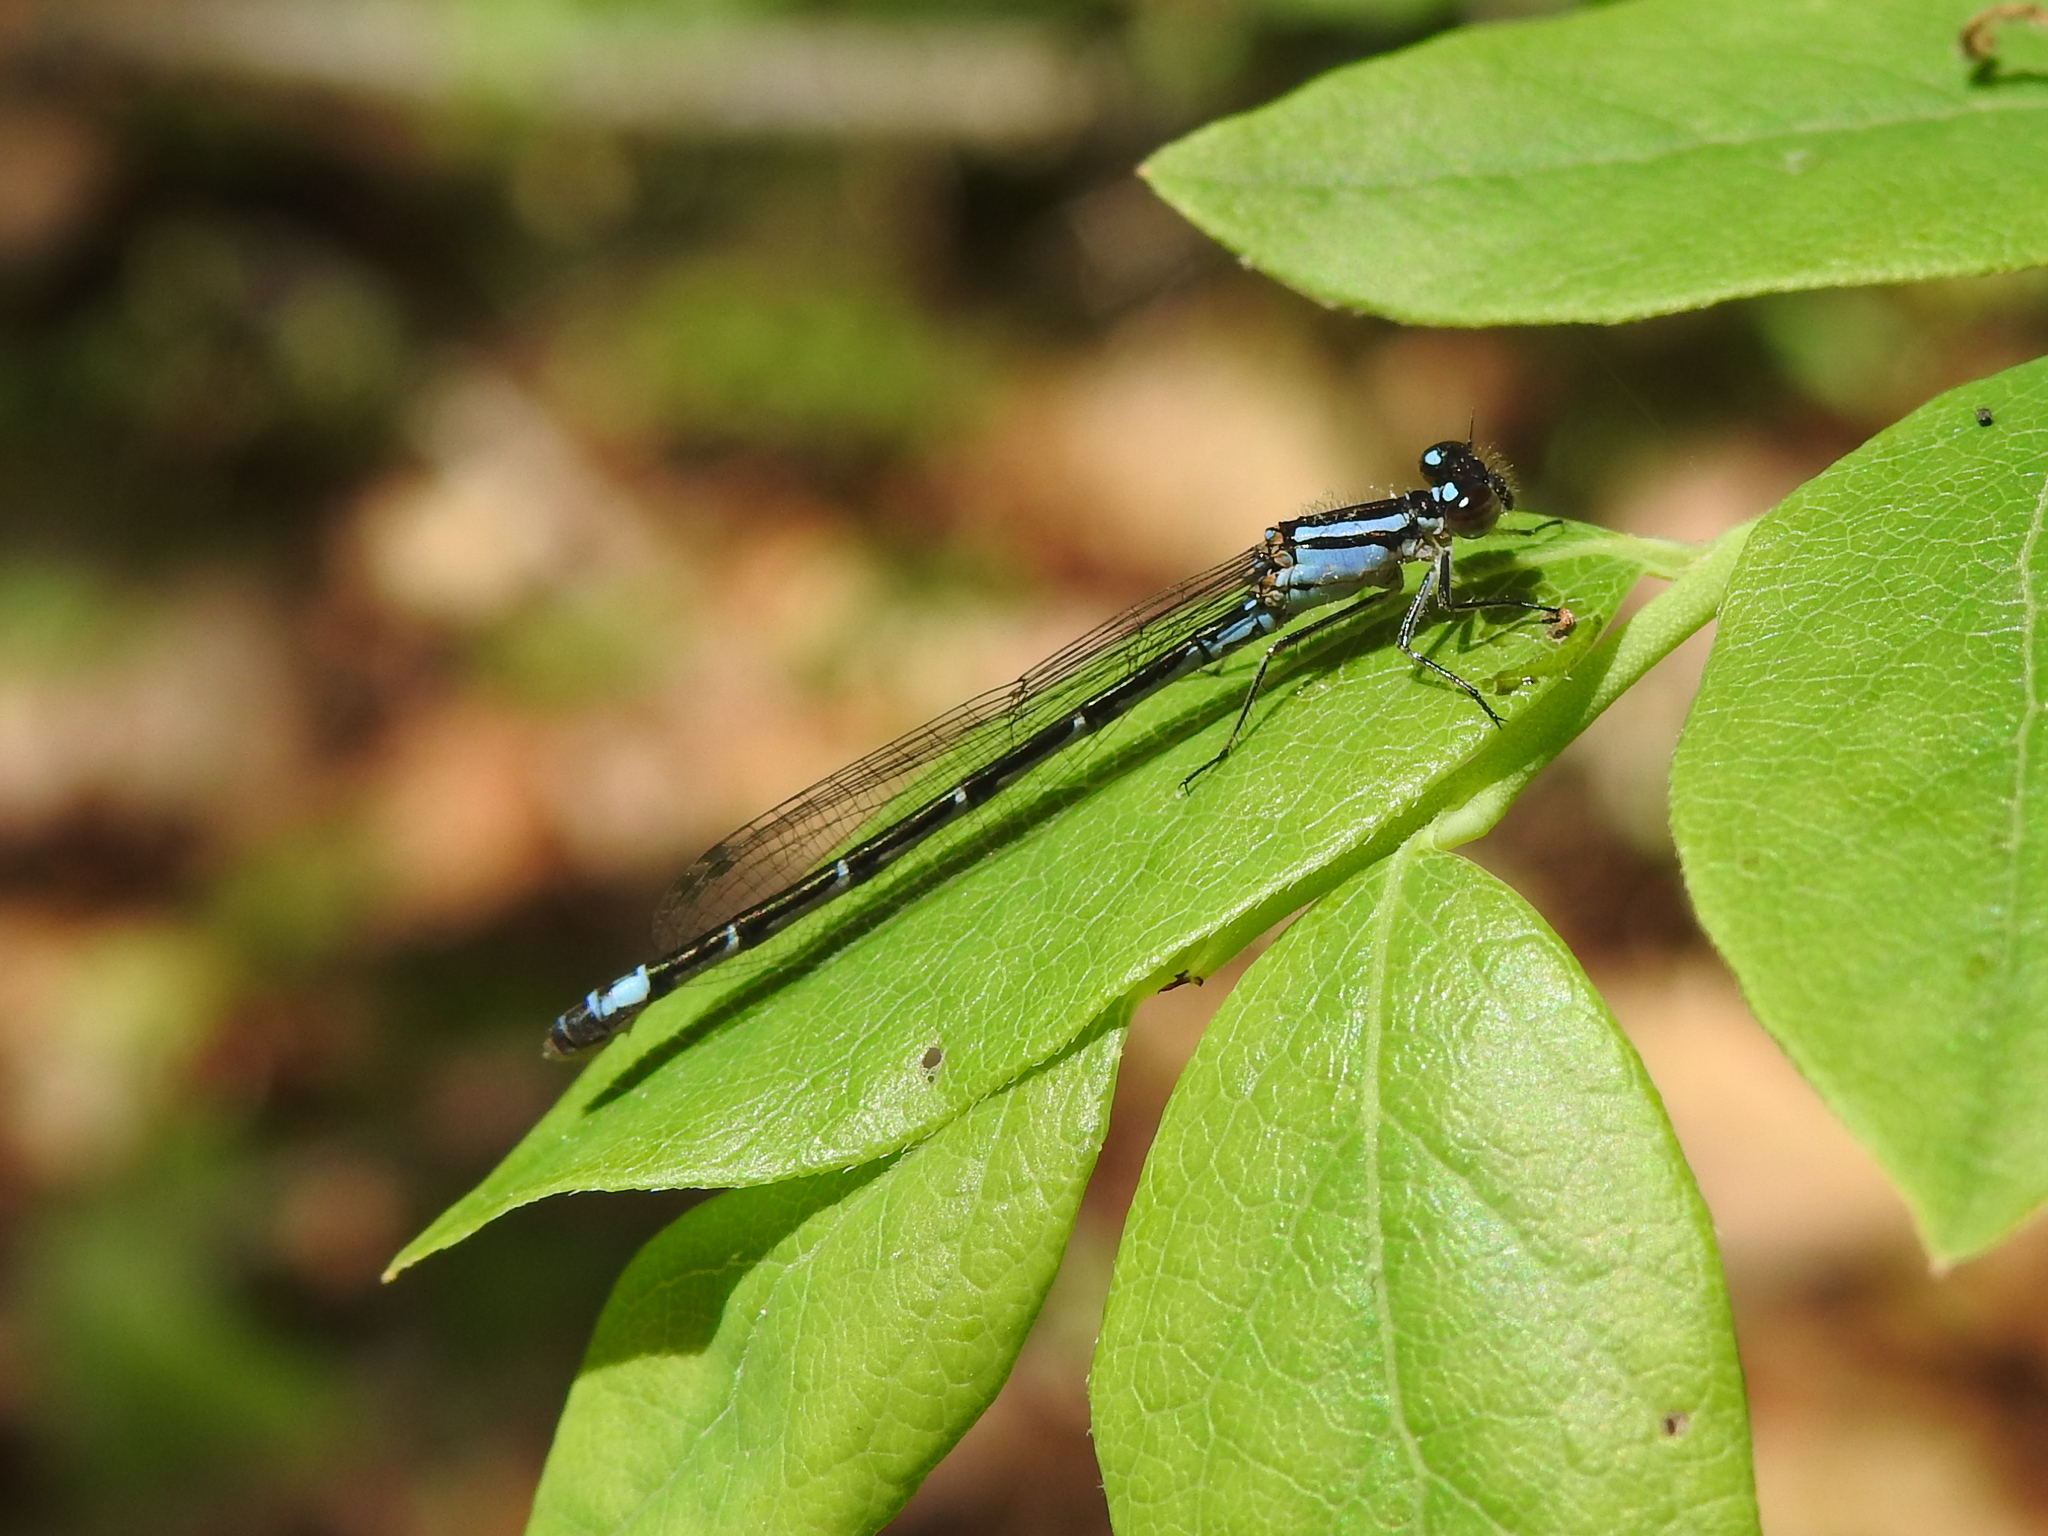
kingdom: Animalia
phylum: Arthropoda
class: Insecta
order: Odonata
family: Coenagrionidae
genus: Enallagma
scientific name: Enallagma geminatum
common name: Skimming bluet
